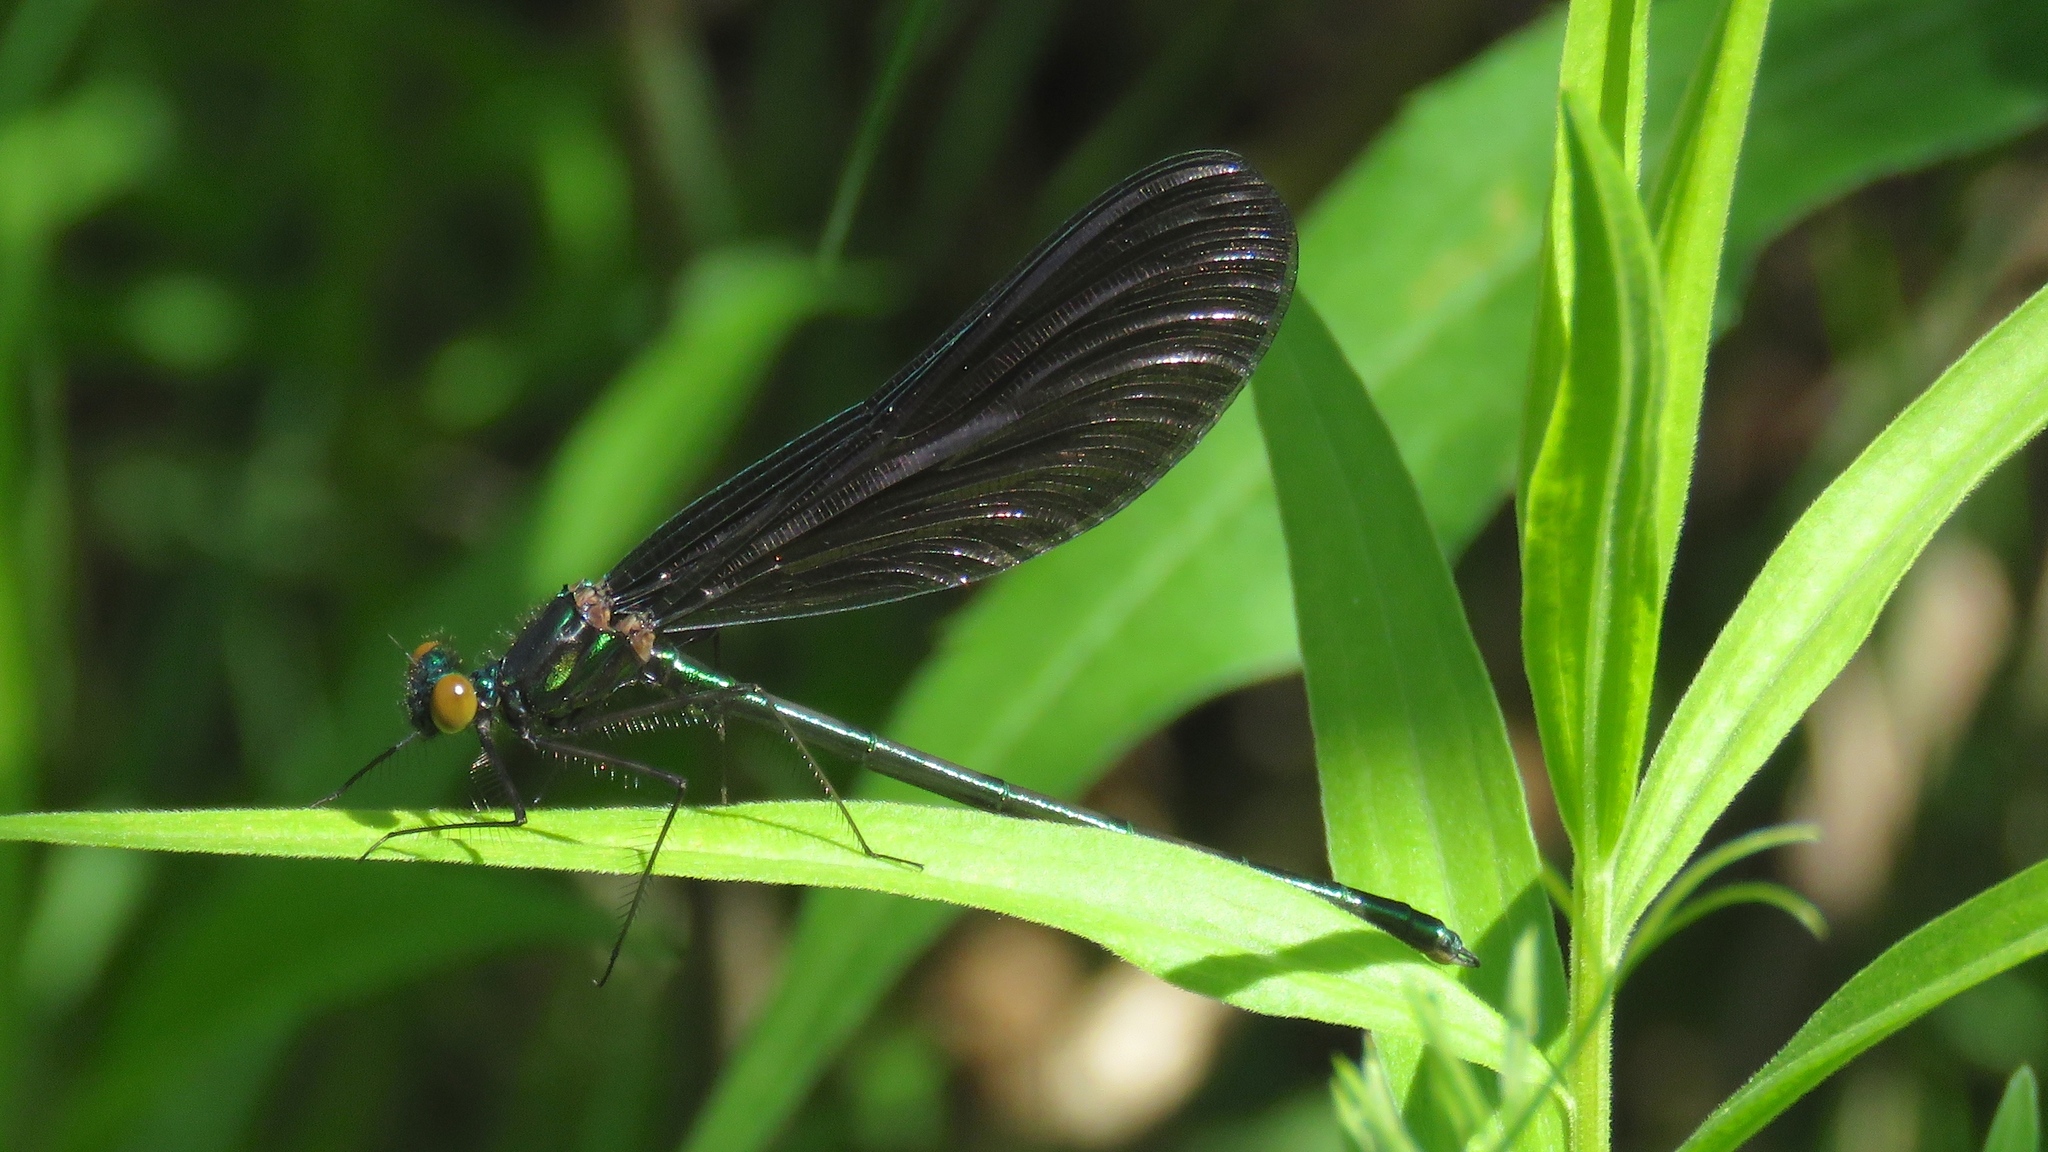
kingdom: Animalia
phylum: Arthropoda
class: Insecta
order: Odonata
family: Calopterygidae
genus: Calopteryx
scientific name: Calopteryx maculata
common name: Ebony jewelwing
